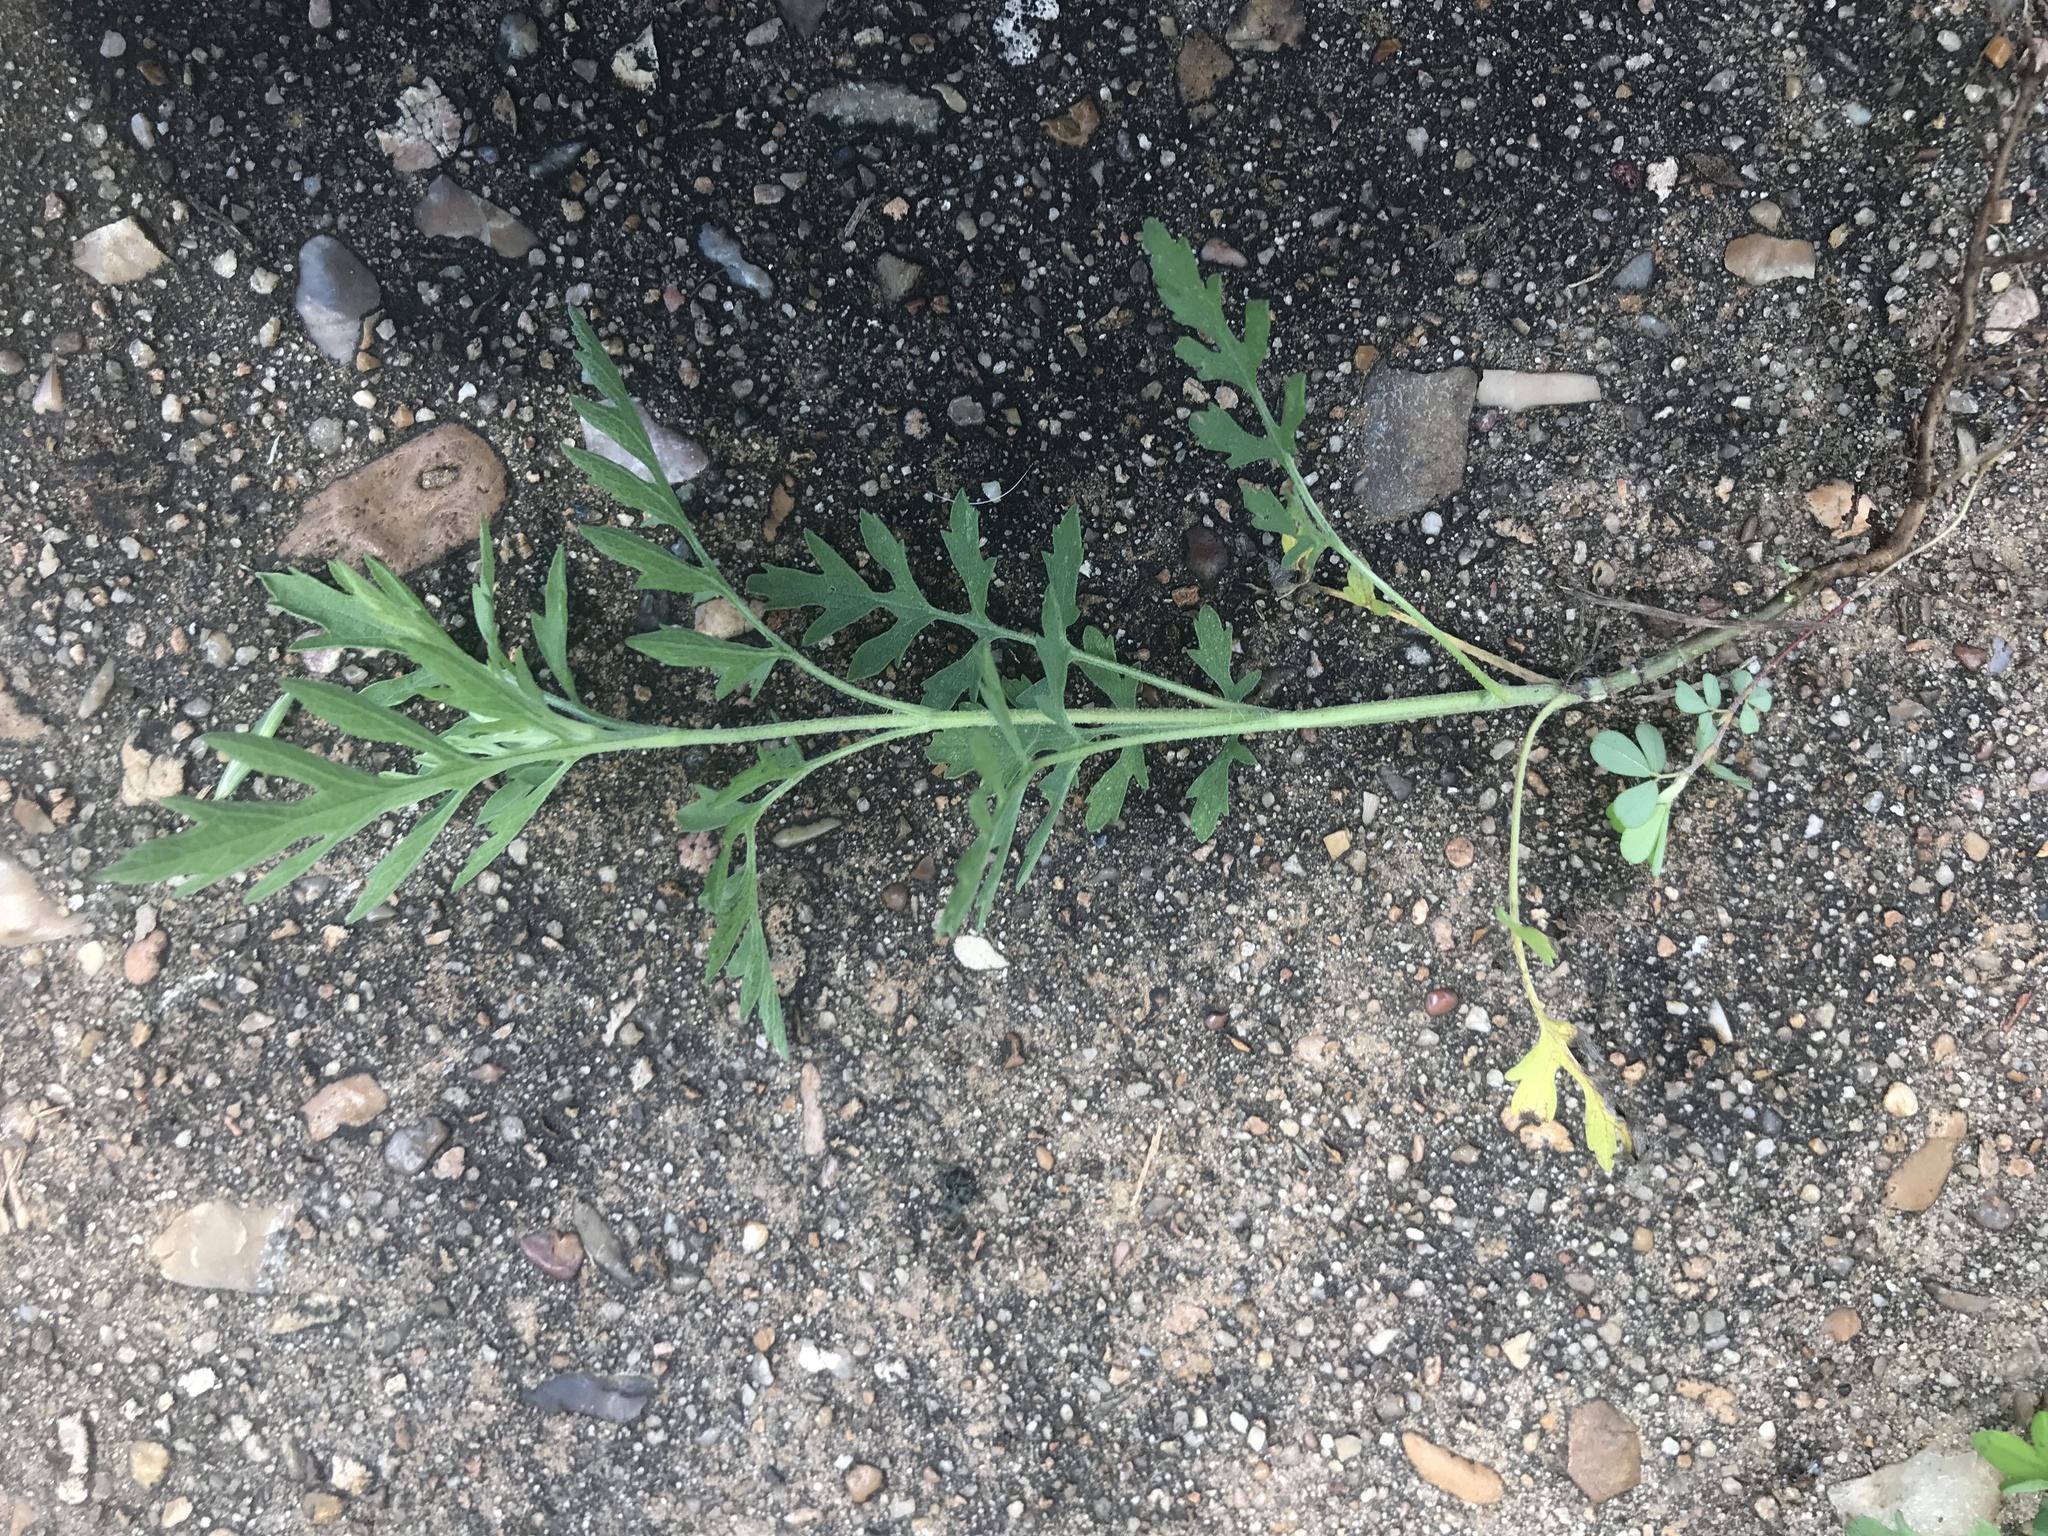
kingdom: Plantae
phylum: Tracheophyta
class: Magnoliopsida
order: Asterales
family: Asteraceae
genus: Ambrosia
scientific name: Ambrosia artemisiifolia
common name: Annual ragweed
